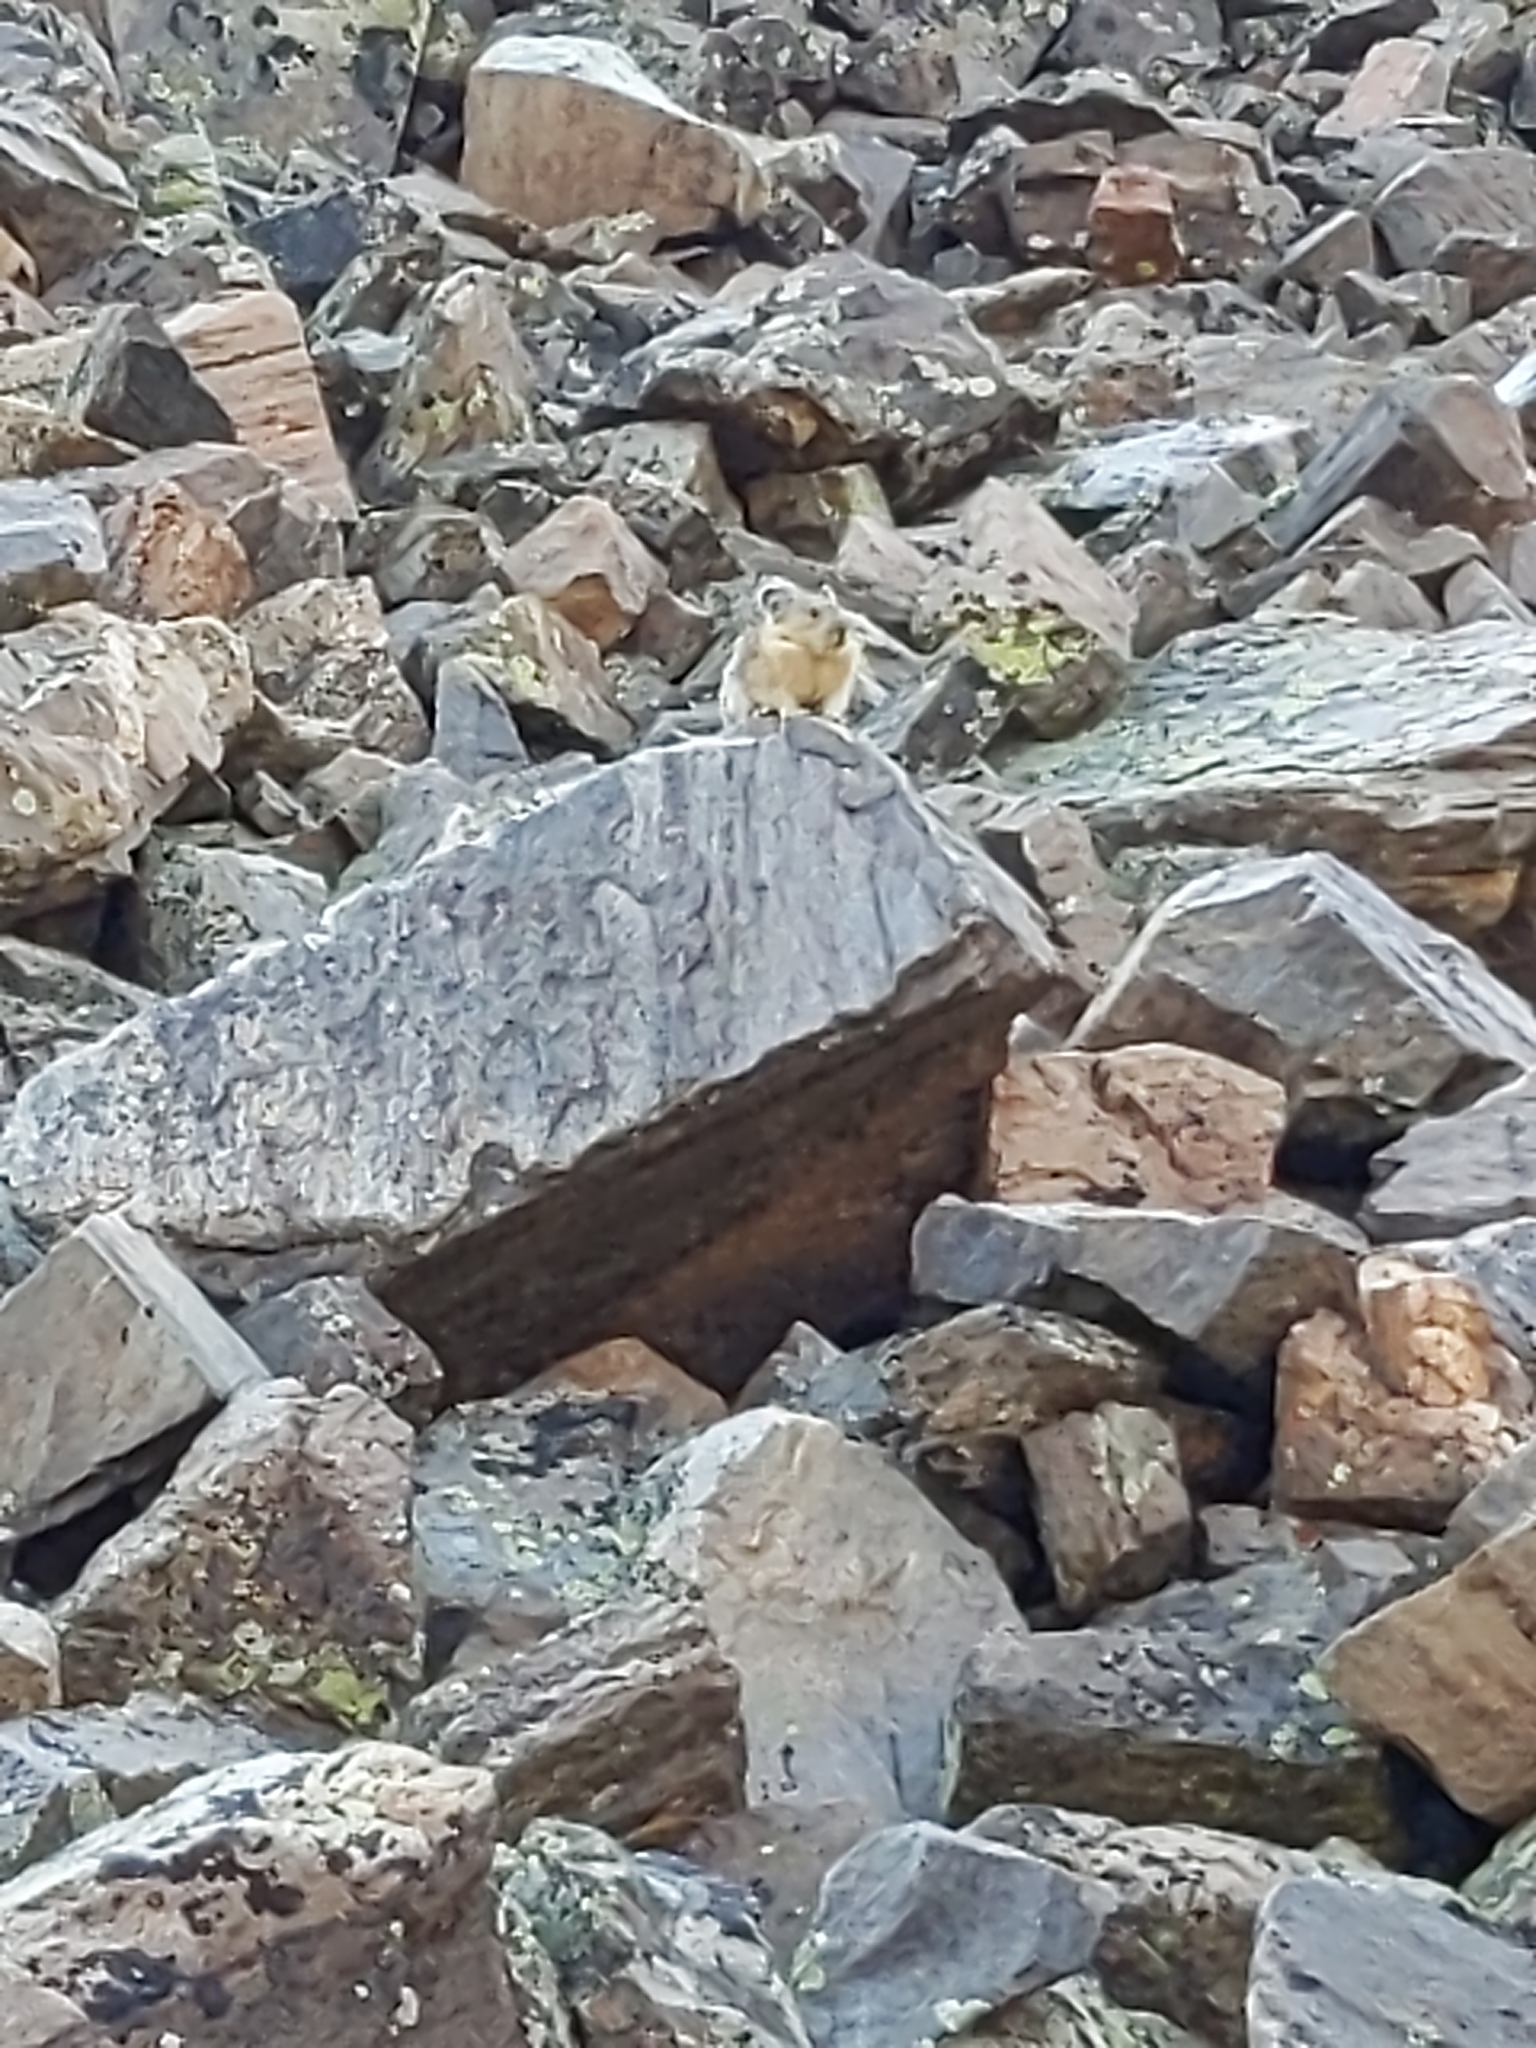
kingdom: Animalia
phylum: Chordata
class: Mammalia
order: Lagomorpha
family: Ochotonidae
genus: Ochotona
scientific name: Ochotona princeps
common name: American pika
